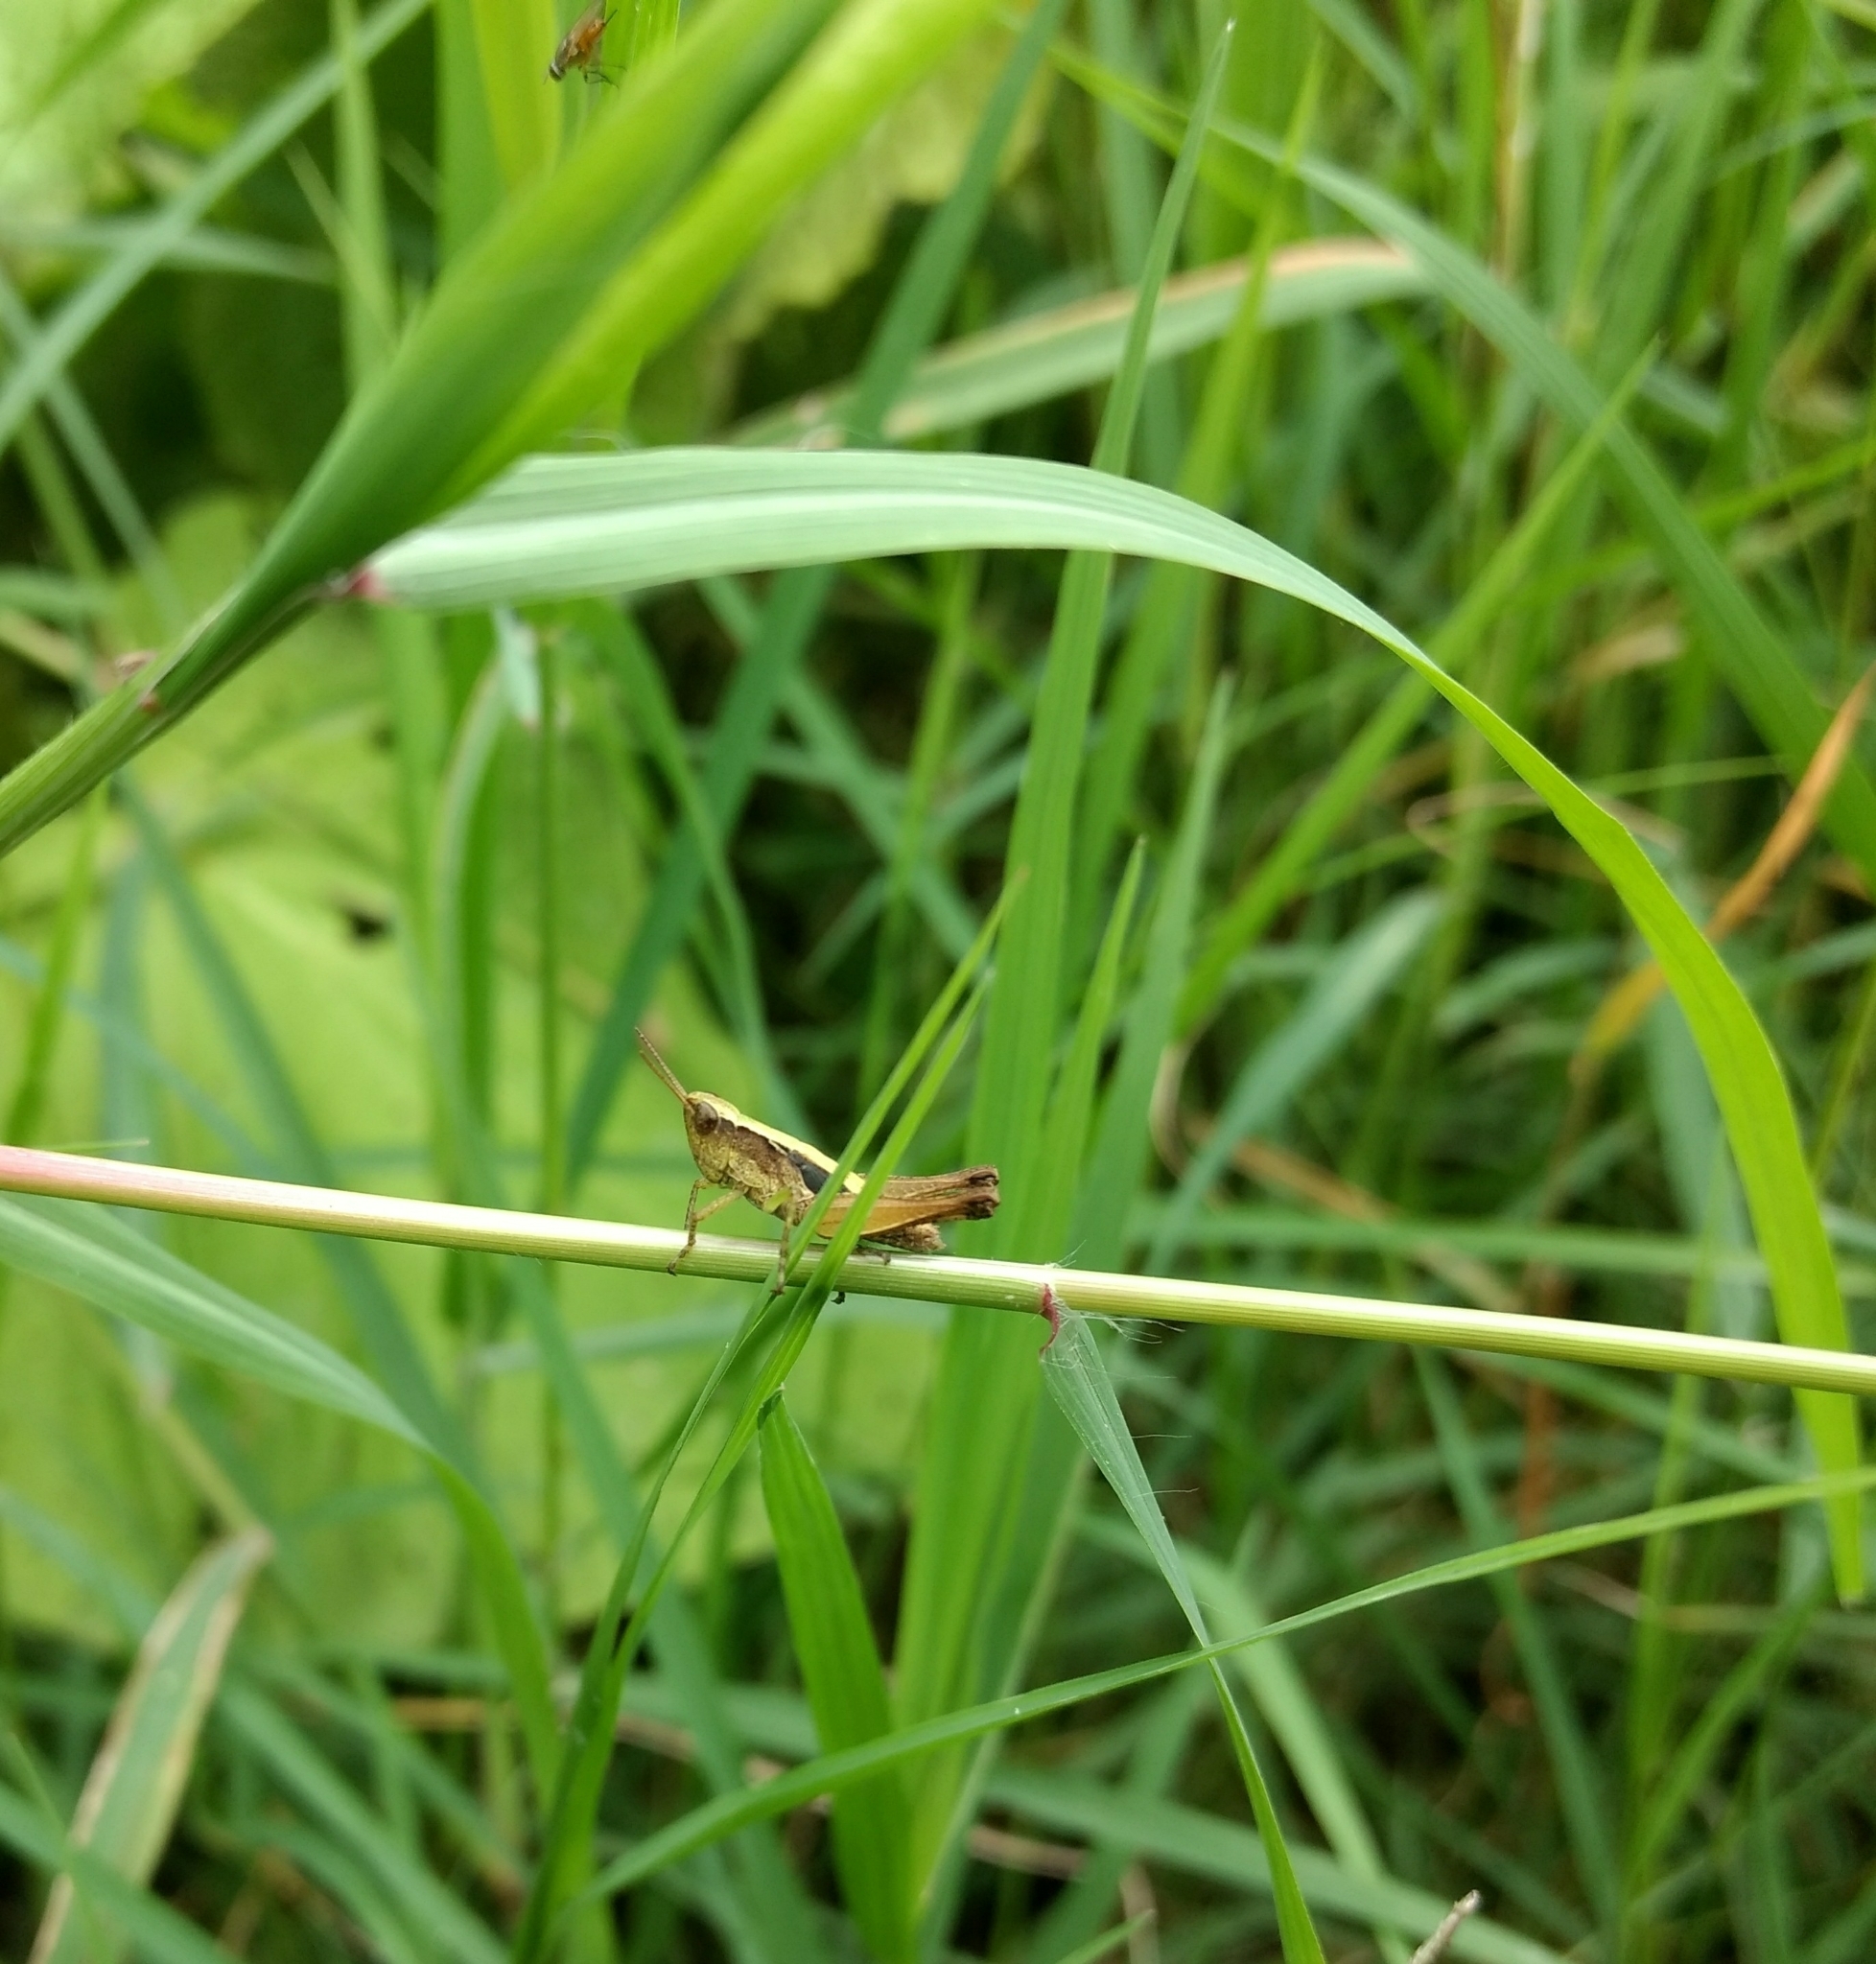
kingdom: Animalia
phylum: Arthropoda
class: Insecta
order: Orthoptera
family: Acrididae
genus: Orphulella
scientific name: Orphulella concinnula
